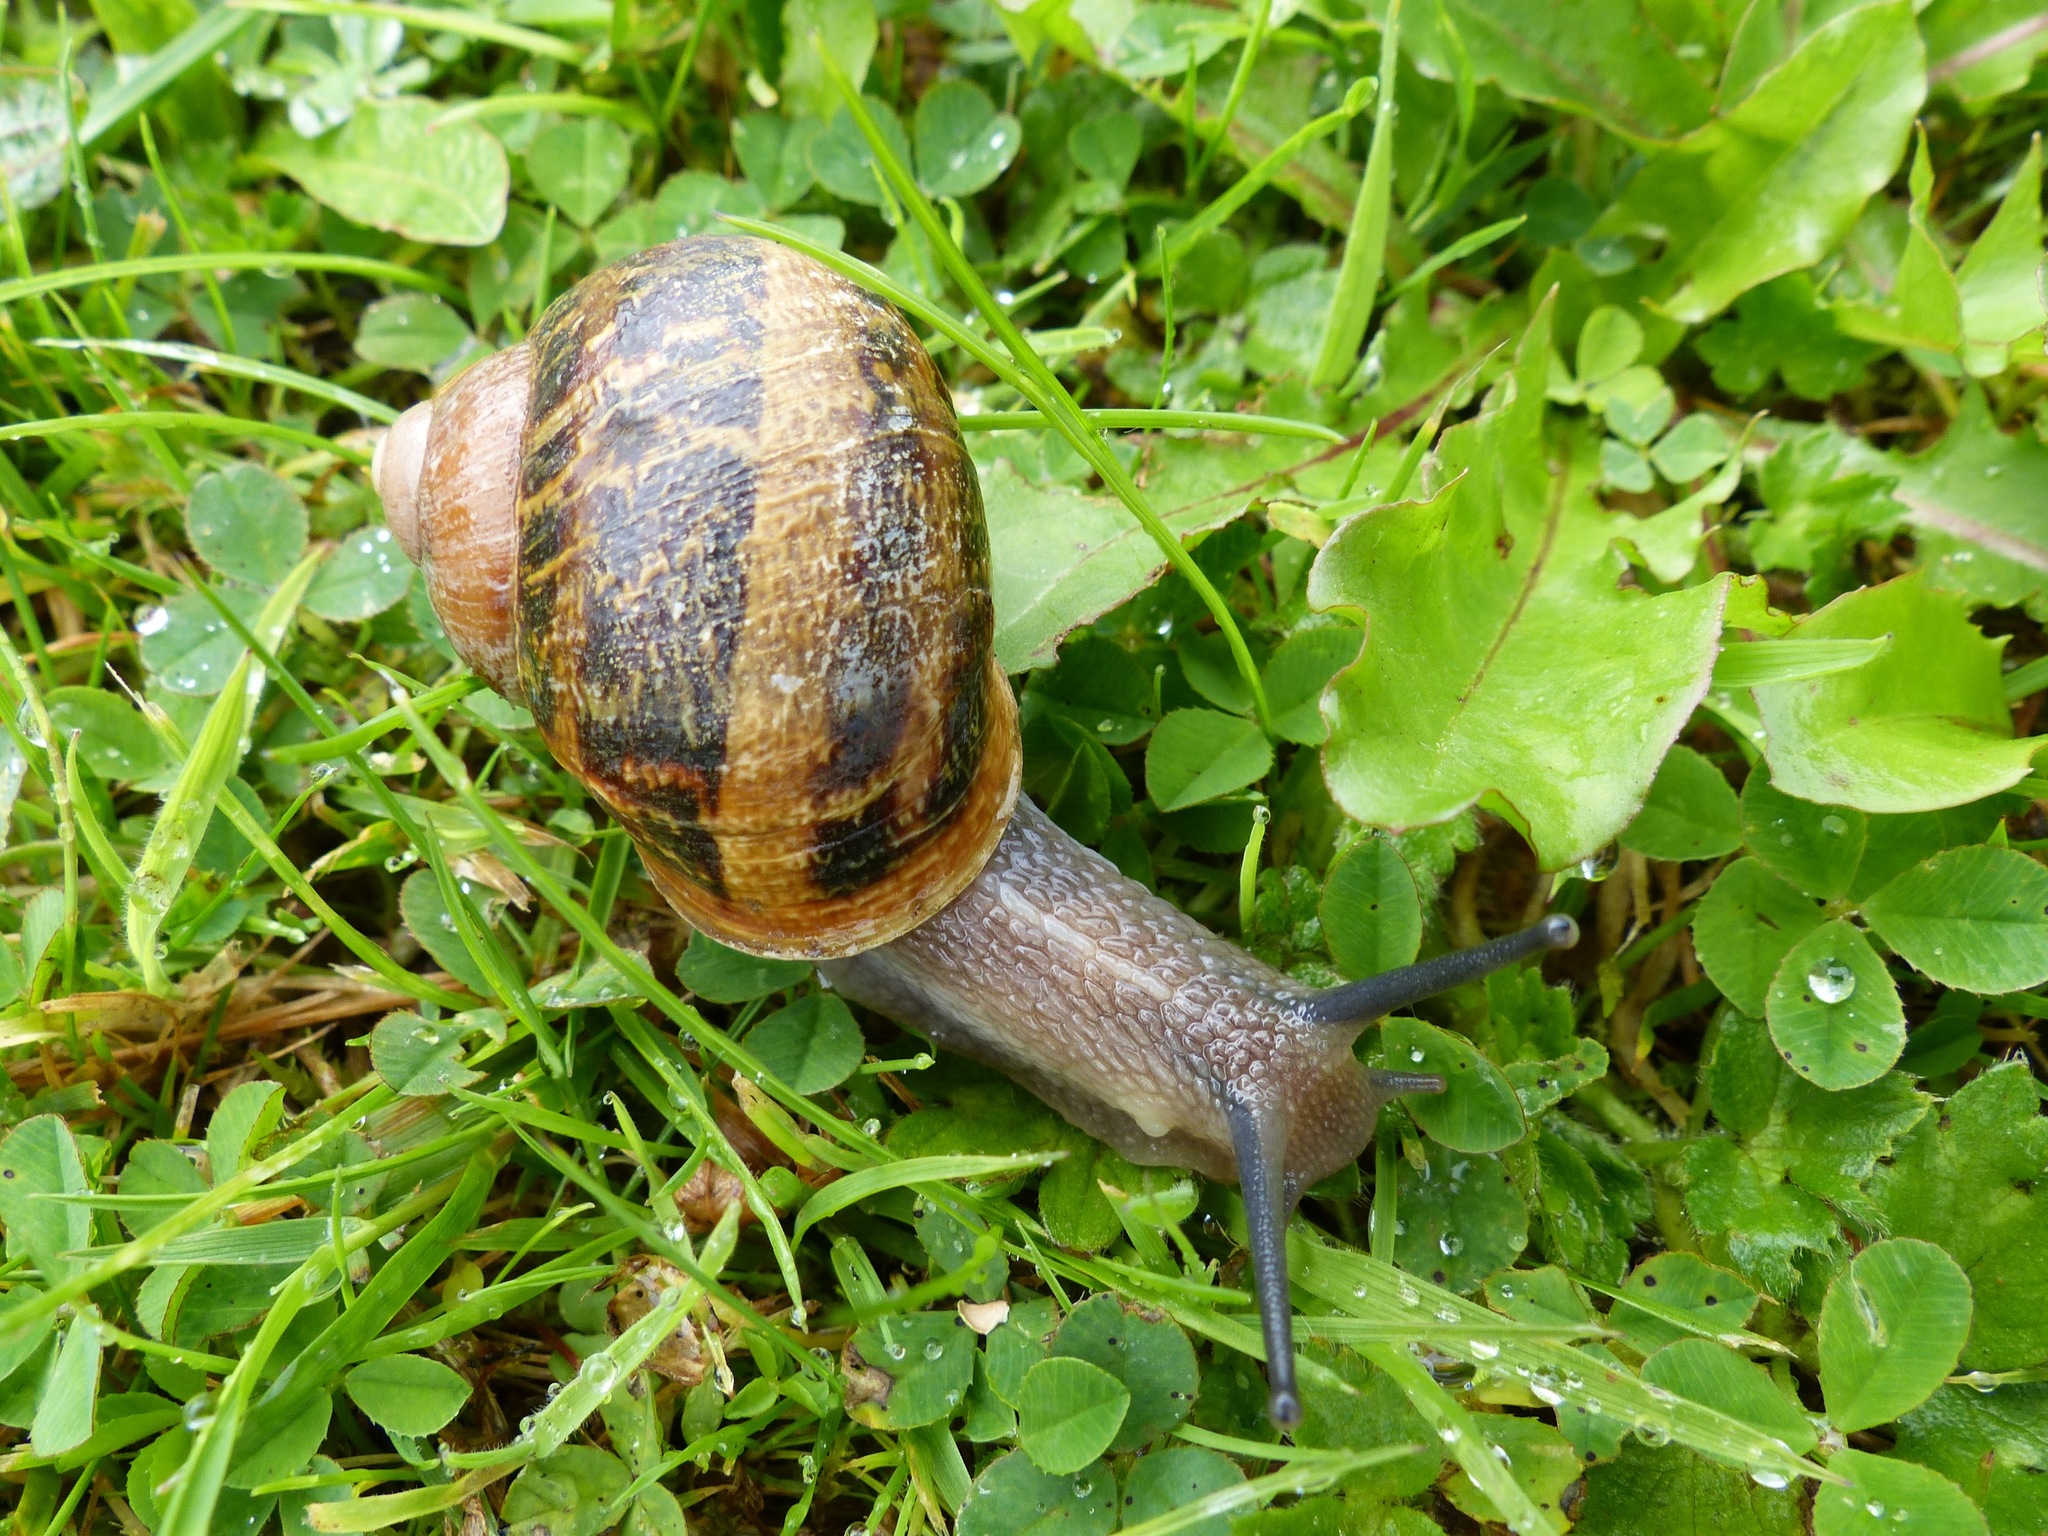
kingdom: Animalia
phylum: Mollusca
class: Gastropoda
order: Stylommatophora
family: Helicidae
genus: Cornu
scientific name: Cornu aspersum
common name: Brown garden snail
